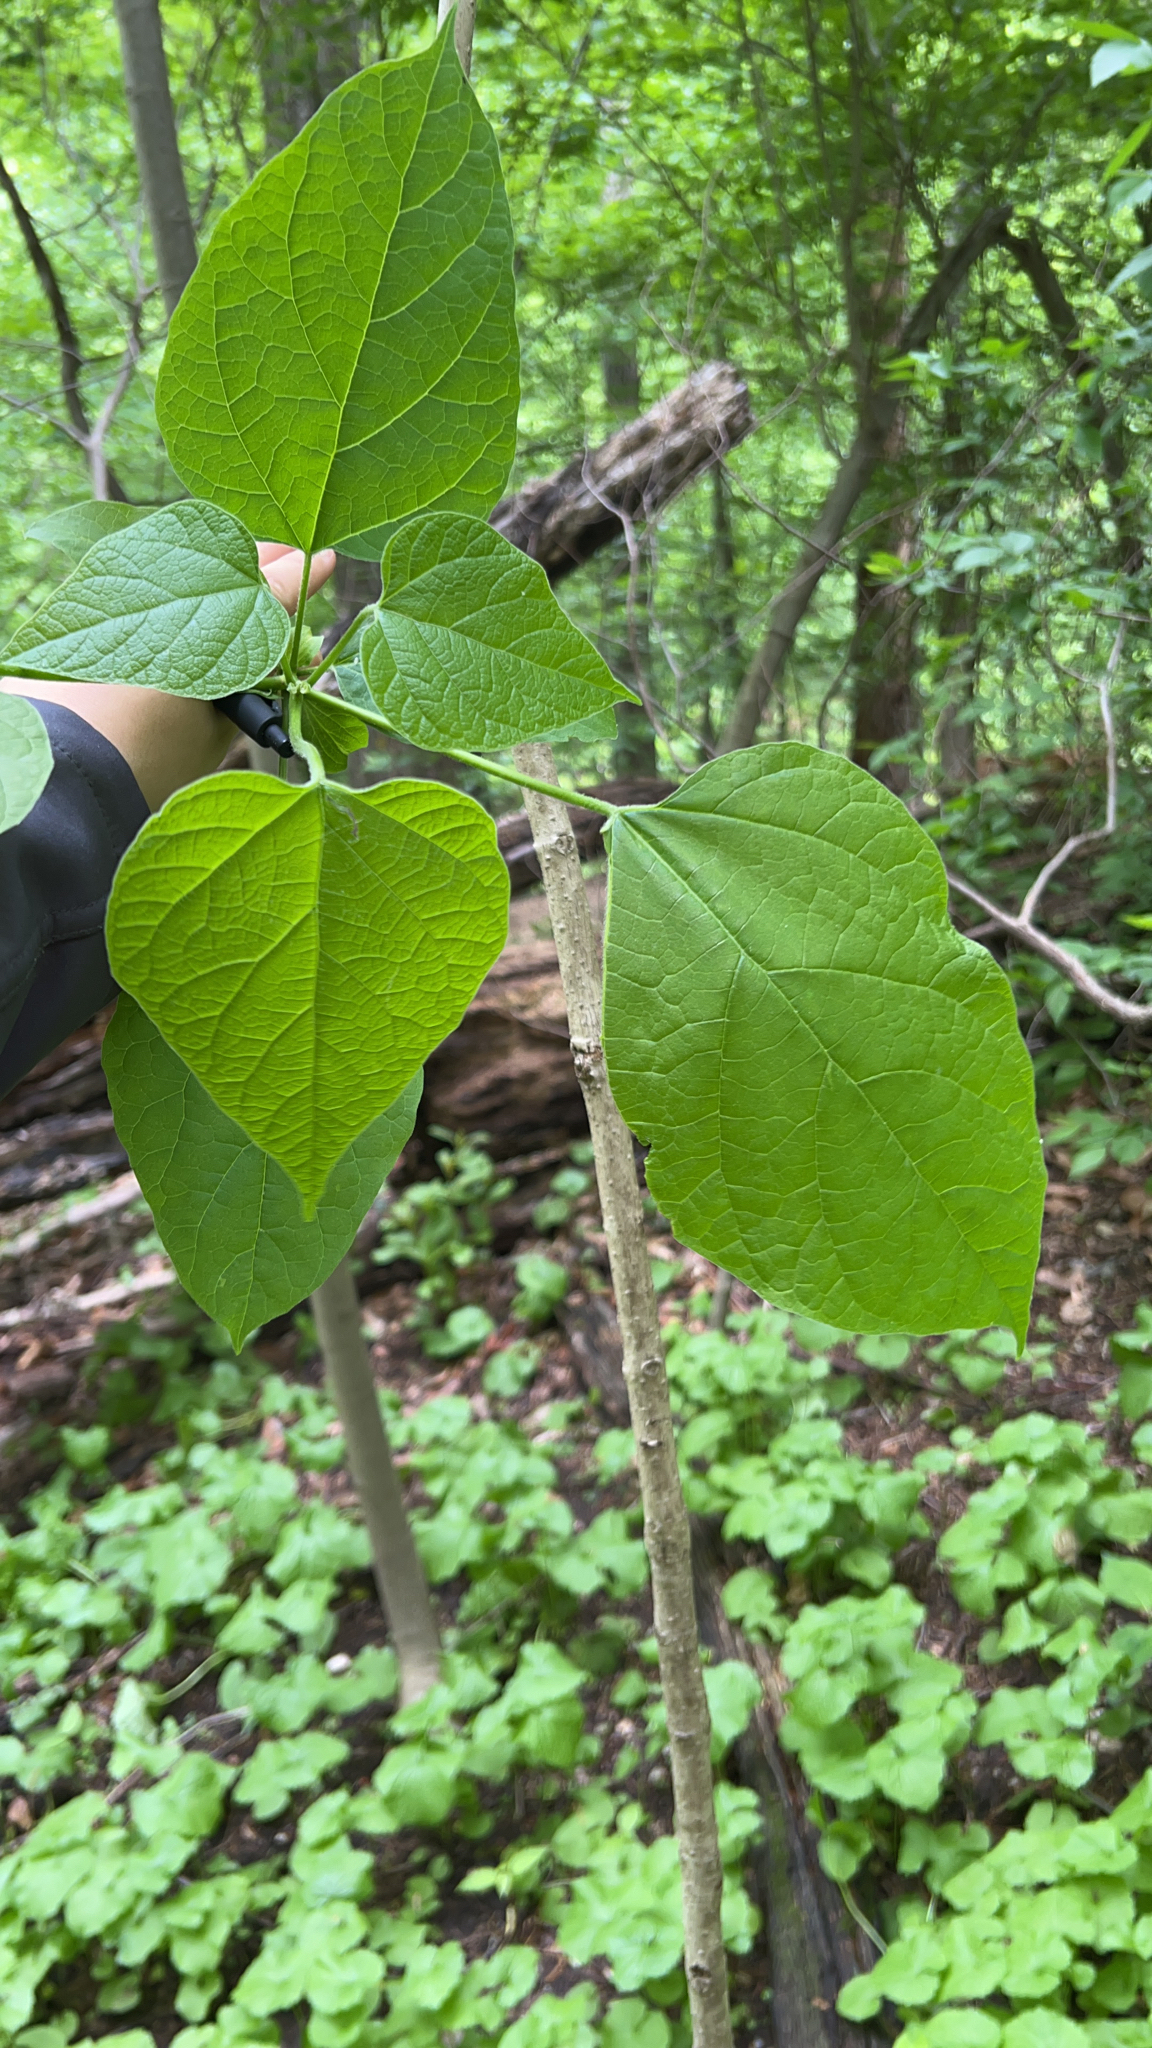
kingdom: Plantae
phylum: Tracheophyta
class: Magnoliopsida
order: Lamiales
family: Bignoniaceae
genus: Catalpa
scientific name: Catalpa speciosa
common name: Northern catalpa
